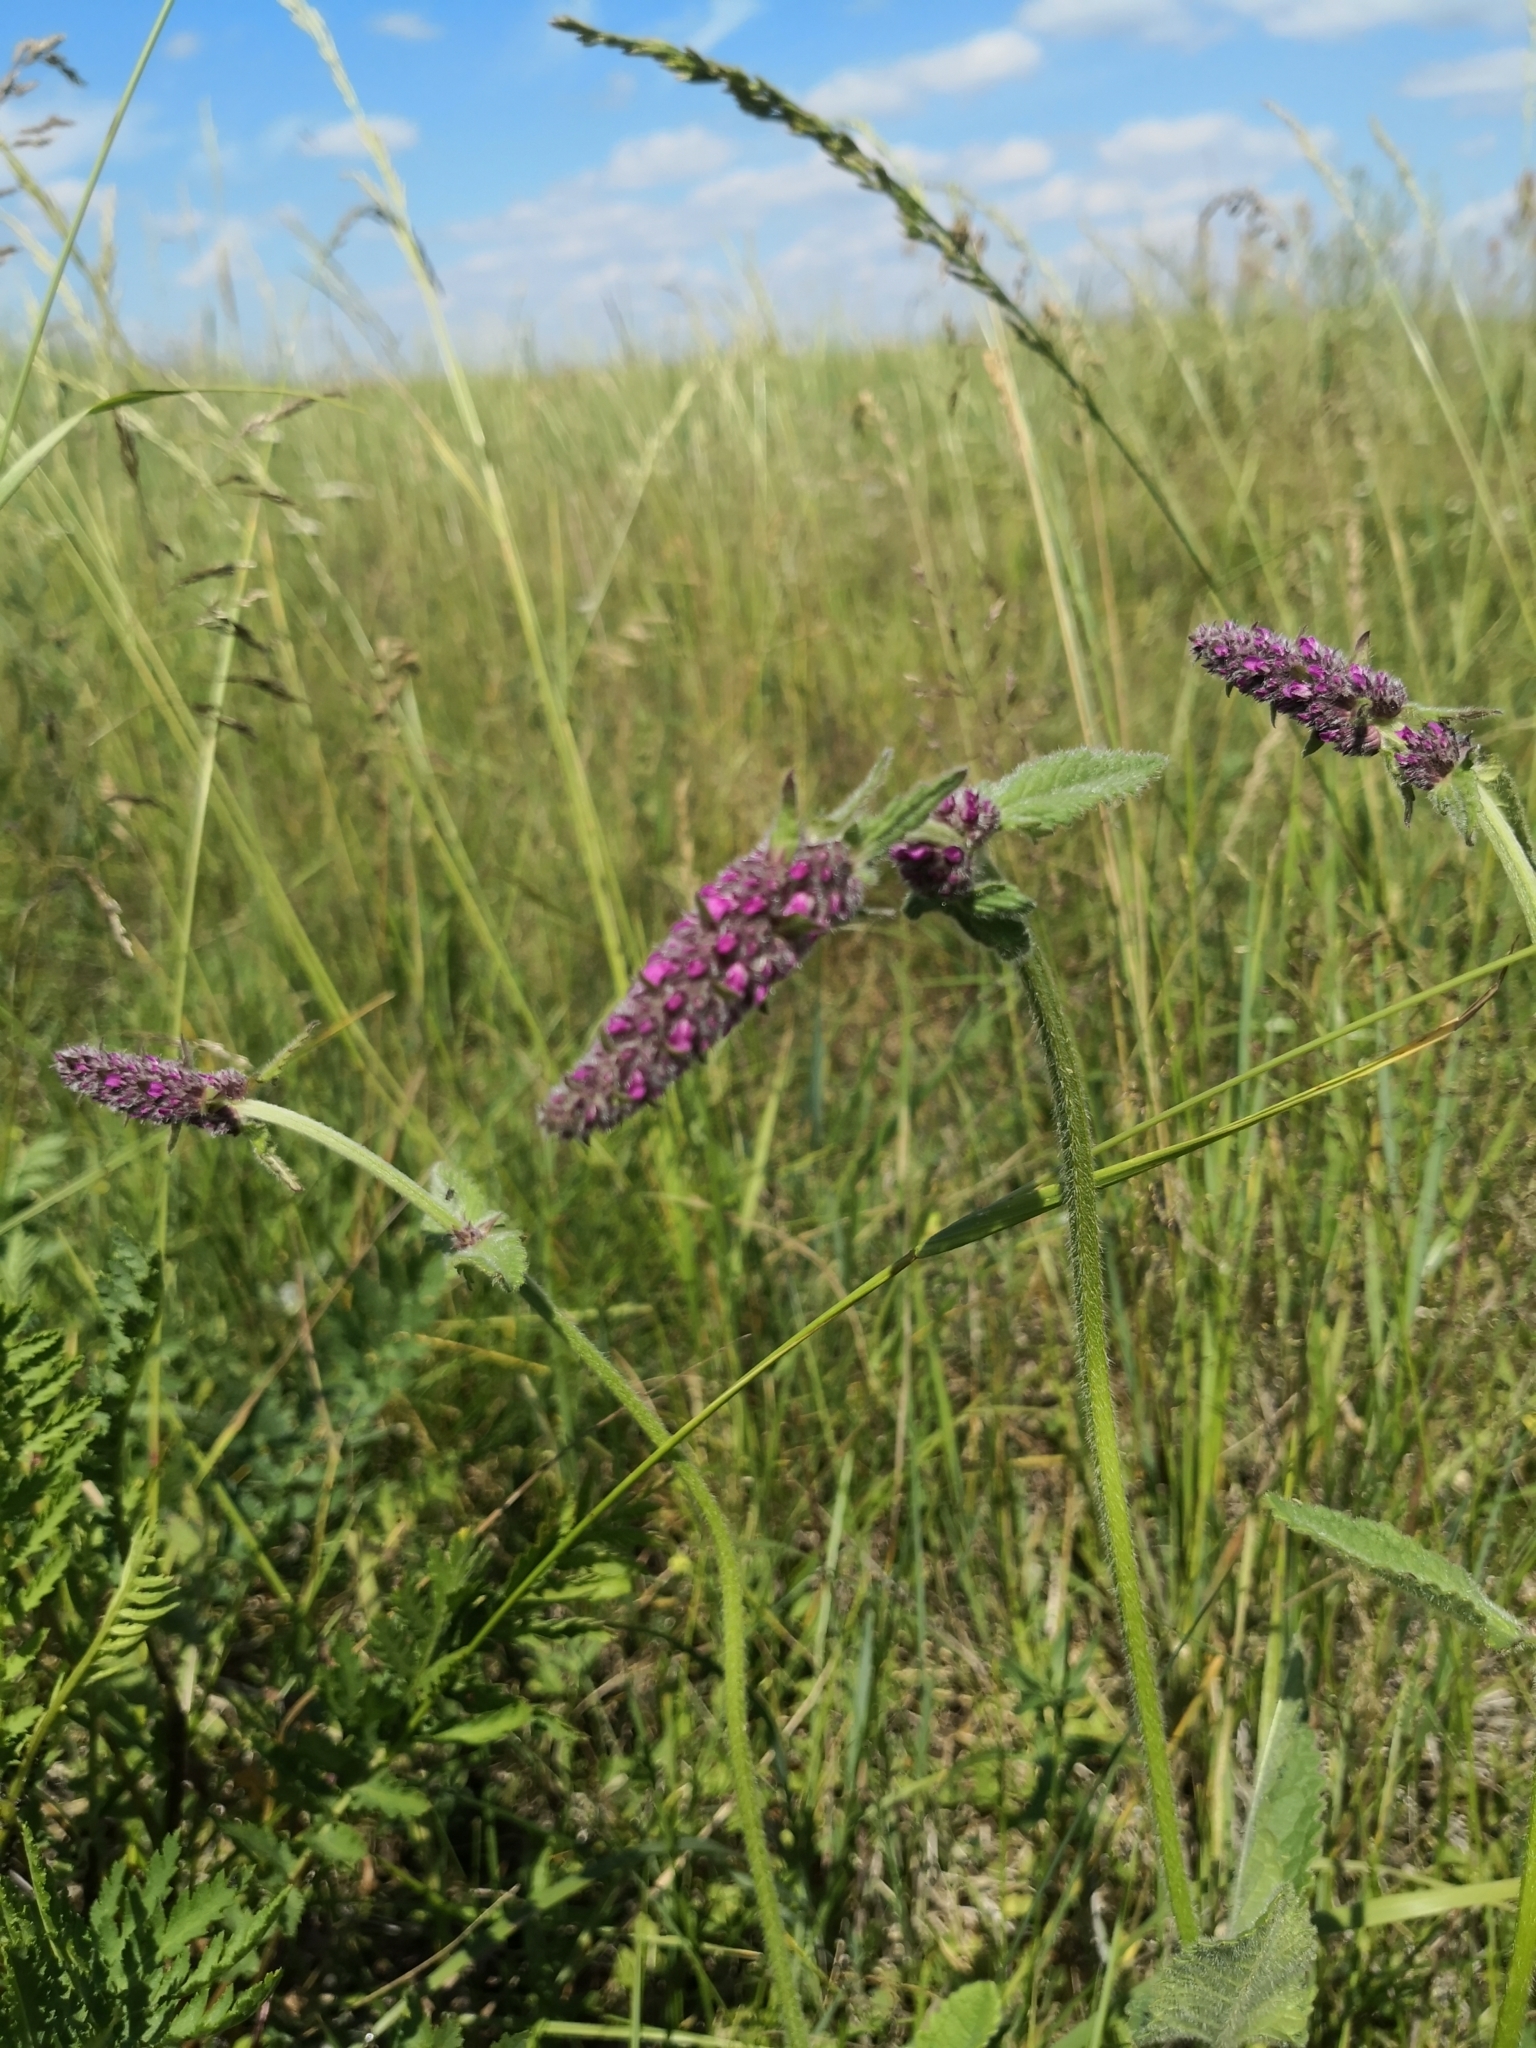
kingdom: Plantae
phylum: Tracheophyta
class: Magnoliopsida
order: Lamiales
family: Lamiaceae
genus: Betonica
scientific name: Betonica officinalis
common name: Bishop's-wort
